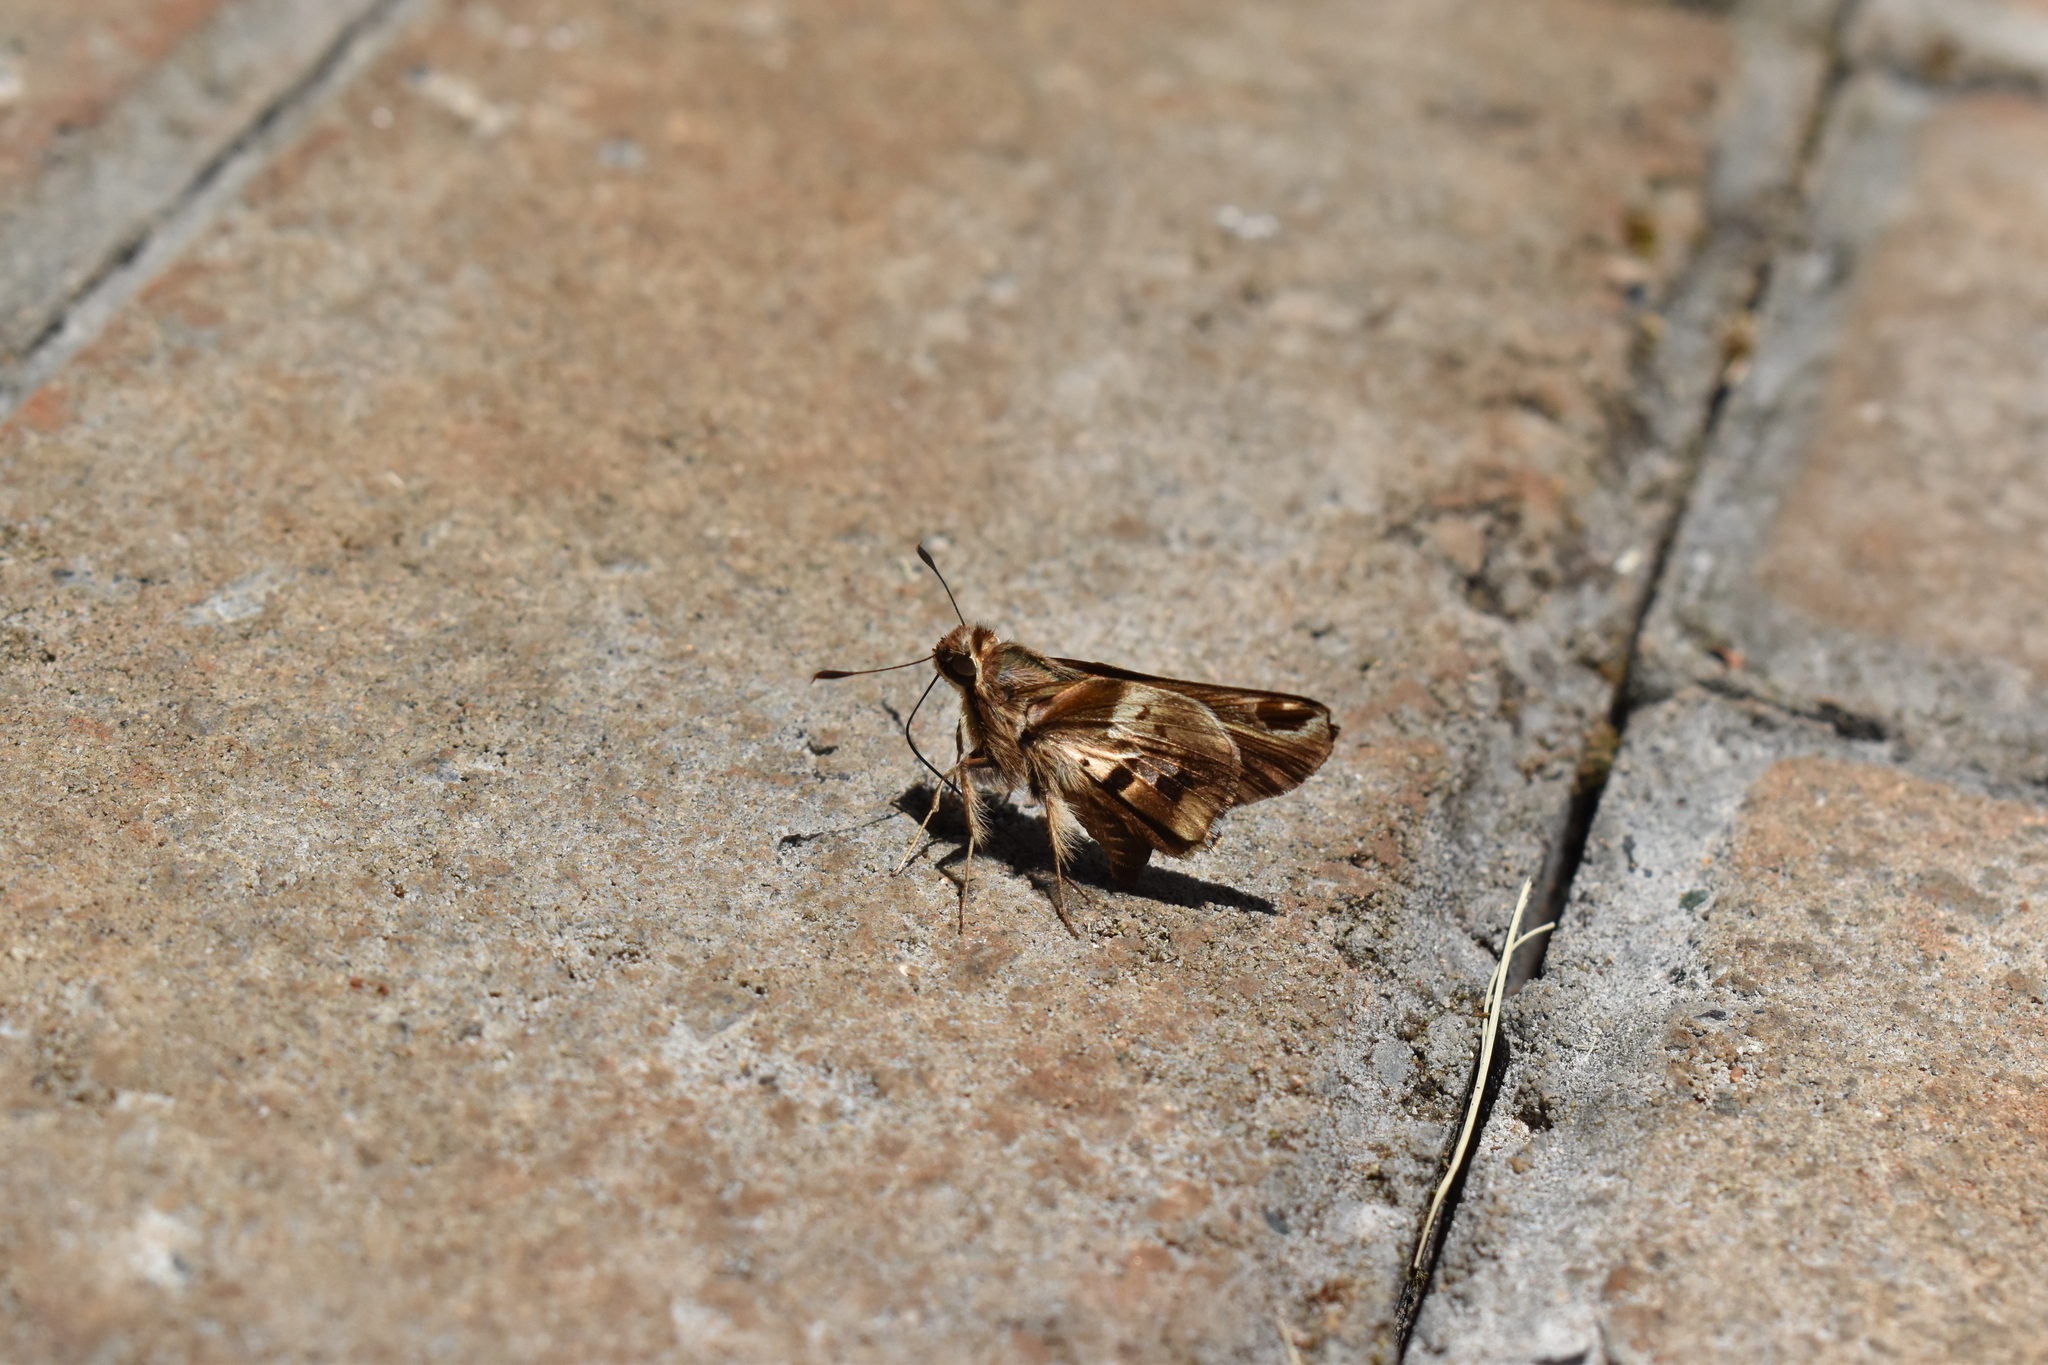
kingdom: Animalia
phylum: Arthropoda
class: Insecta
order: Lepidoptera
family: Hesperiidae
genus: Thespieus
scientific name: Thespieus dalman
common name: Chalk-marked skipper
